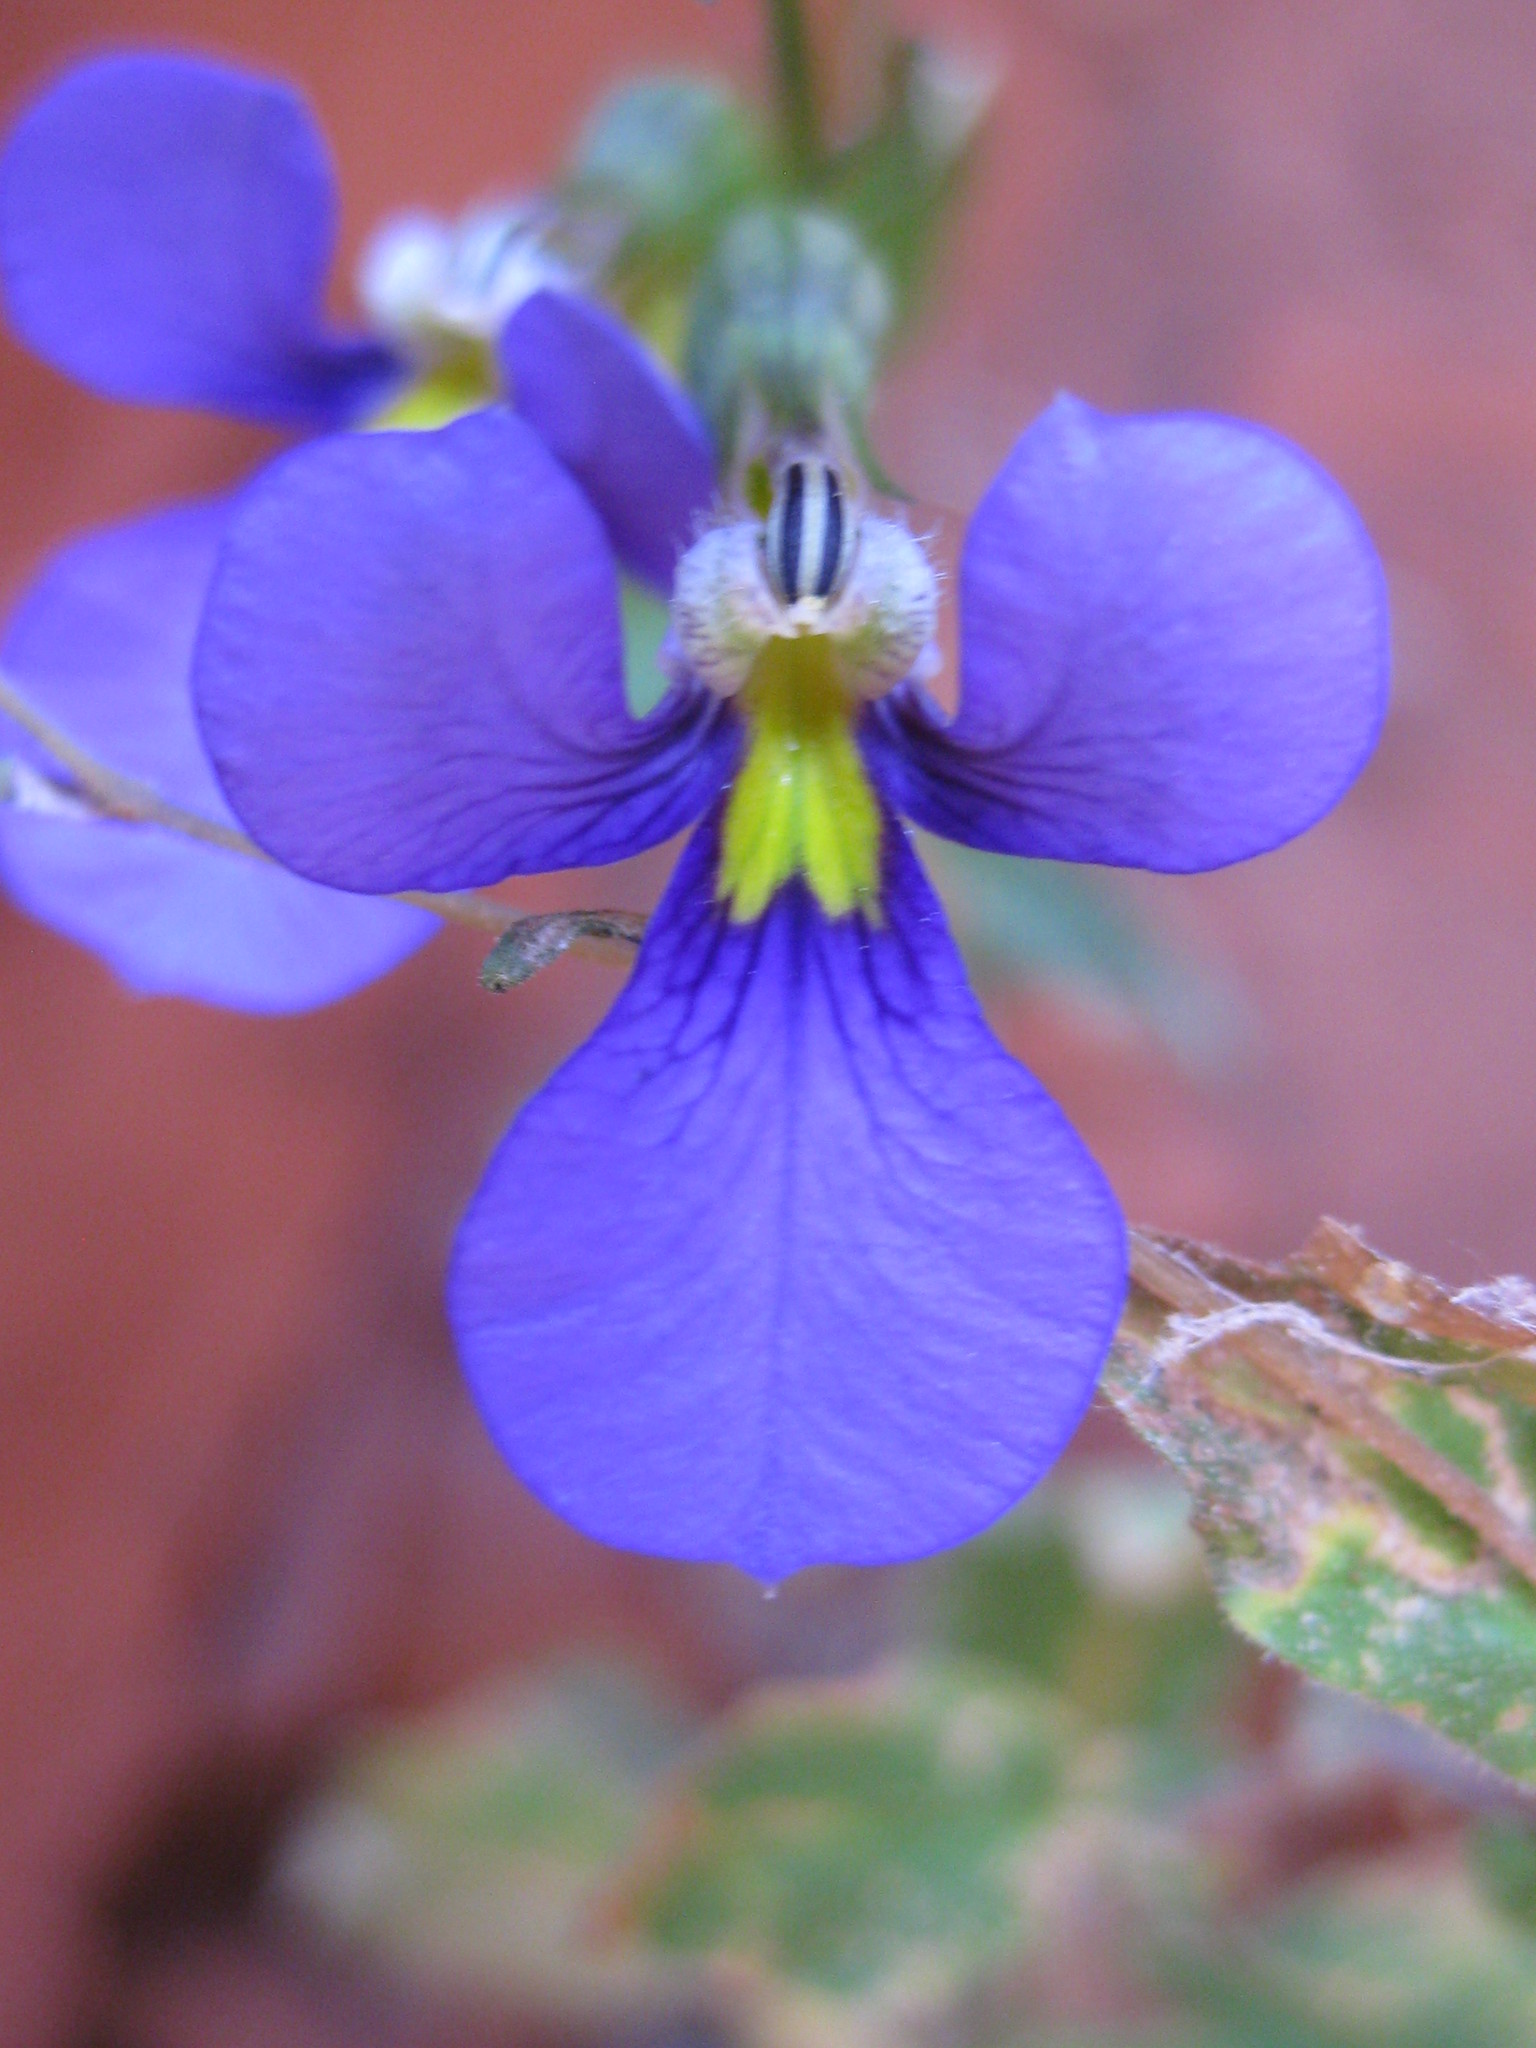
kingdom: Plantae
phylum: Tracheophyta
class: Magnoliopsida
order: Asterales
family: Campanulaceae
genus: Lobelia
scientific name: Lobelia heterophylla
